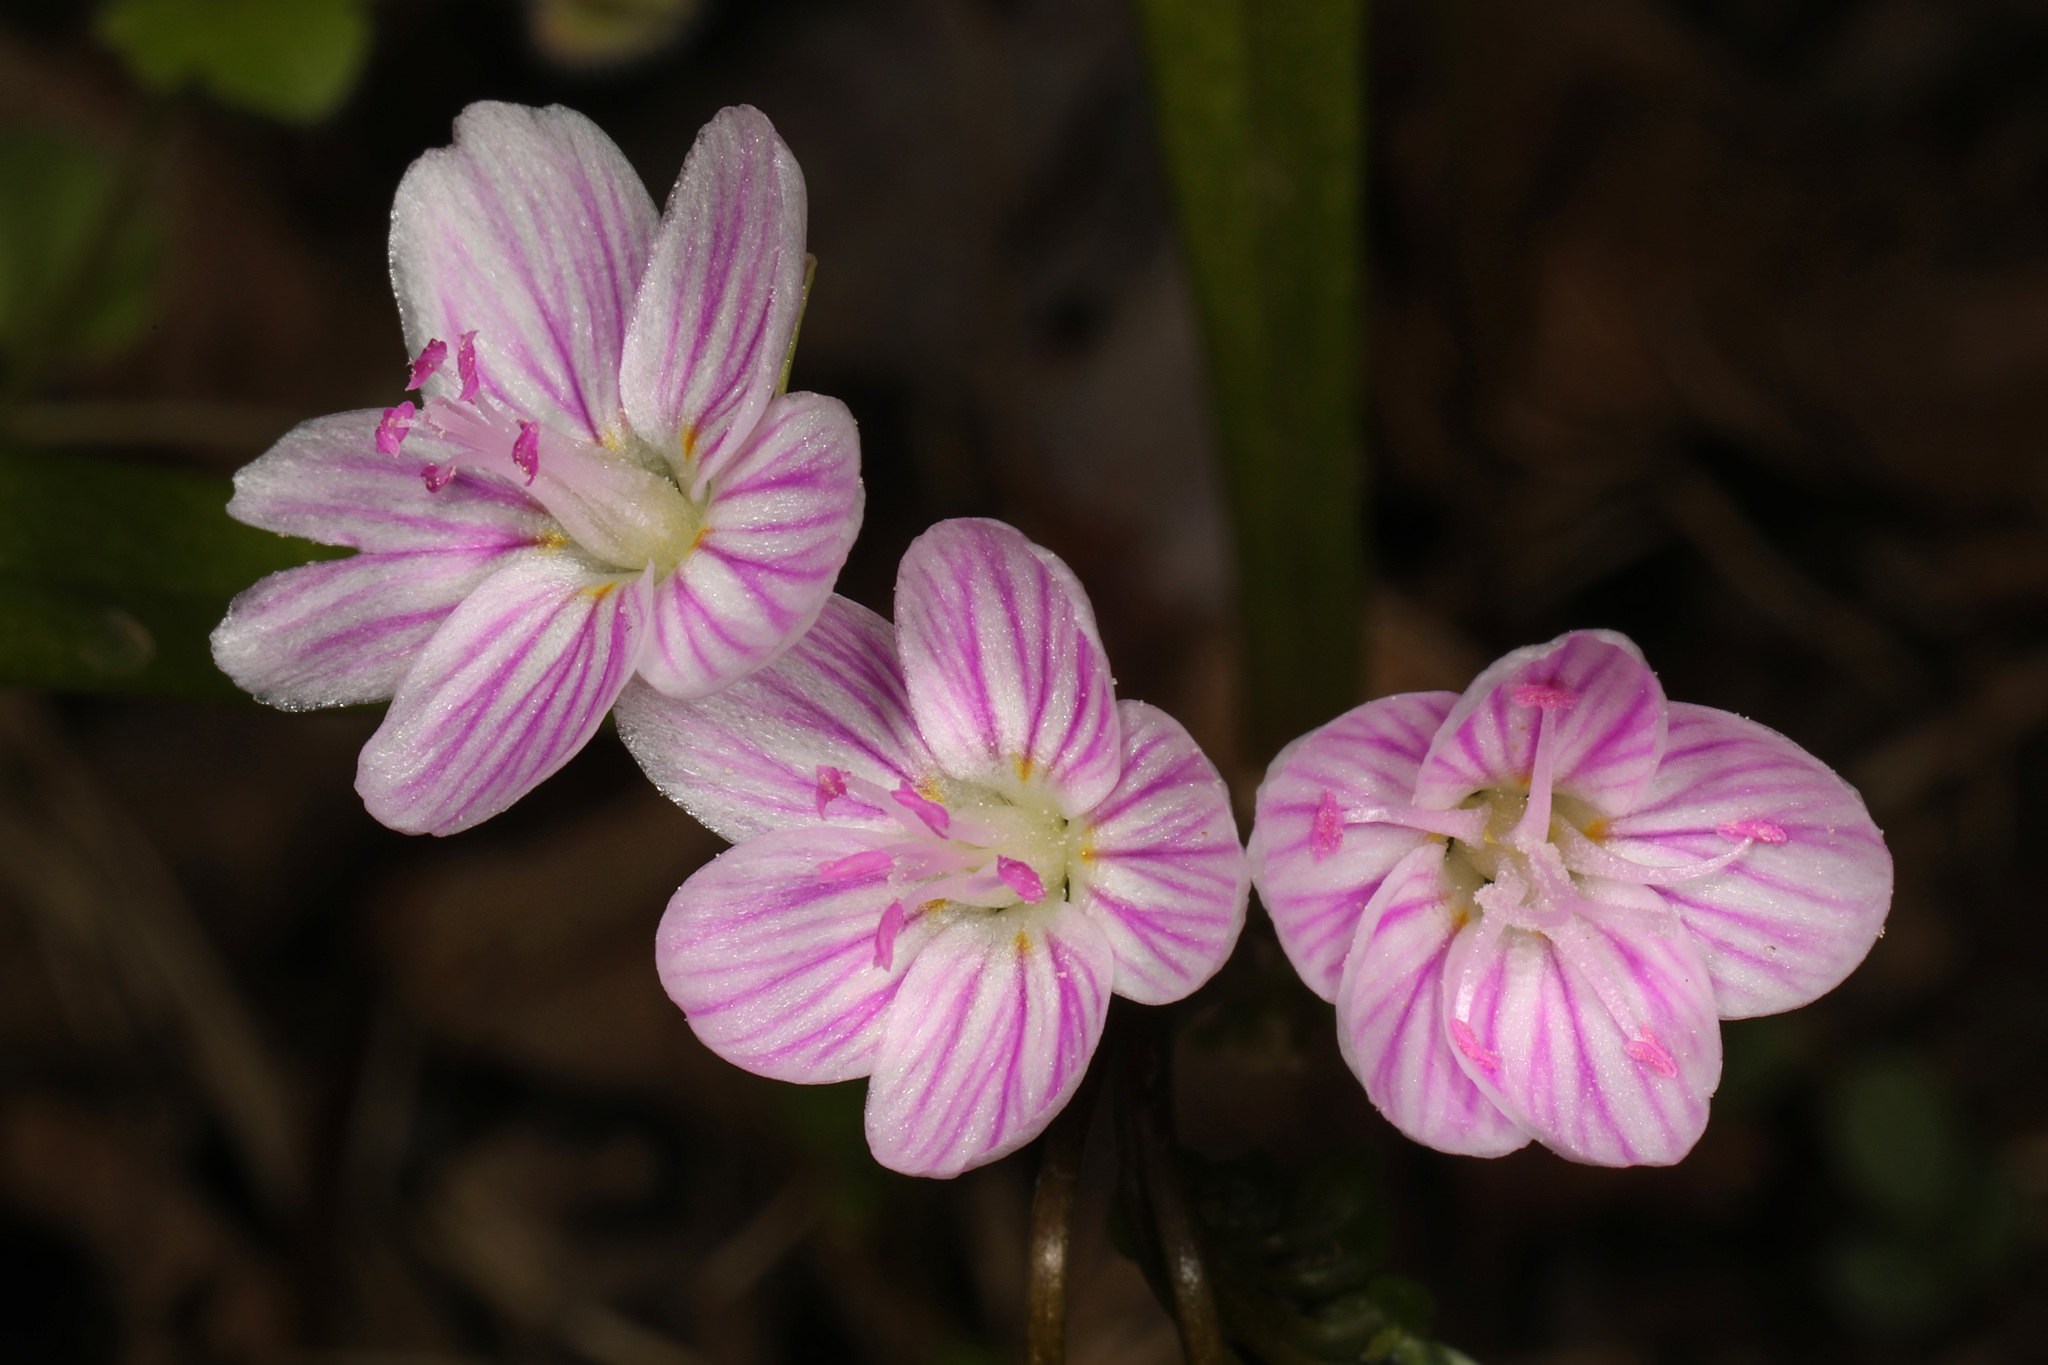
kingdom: Plantae
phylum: Tracheophyta
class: Magnoliopsida
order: Caryophyllales
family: Montiaceae
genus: Claytonia
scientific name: Claytonia virginica
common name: Virginia springbeauty
